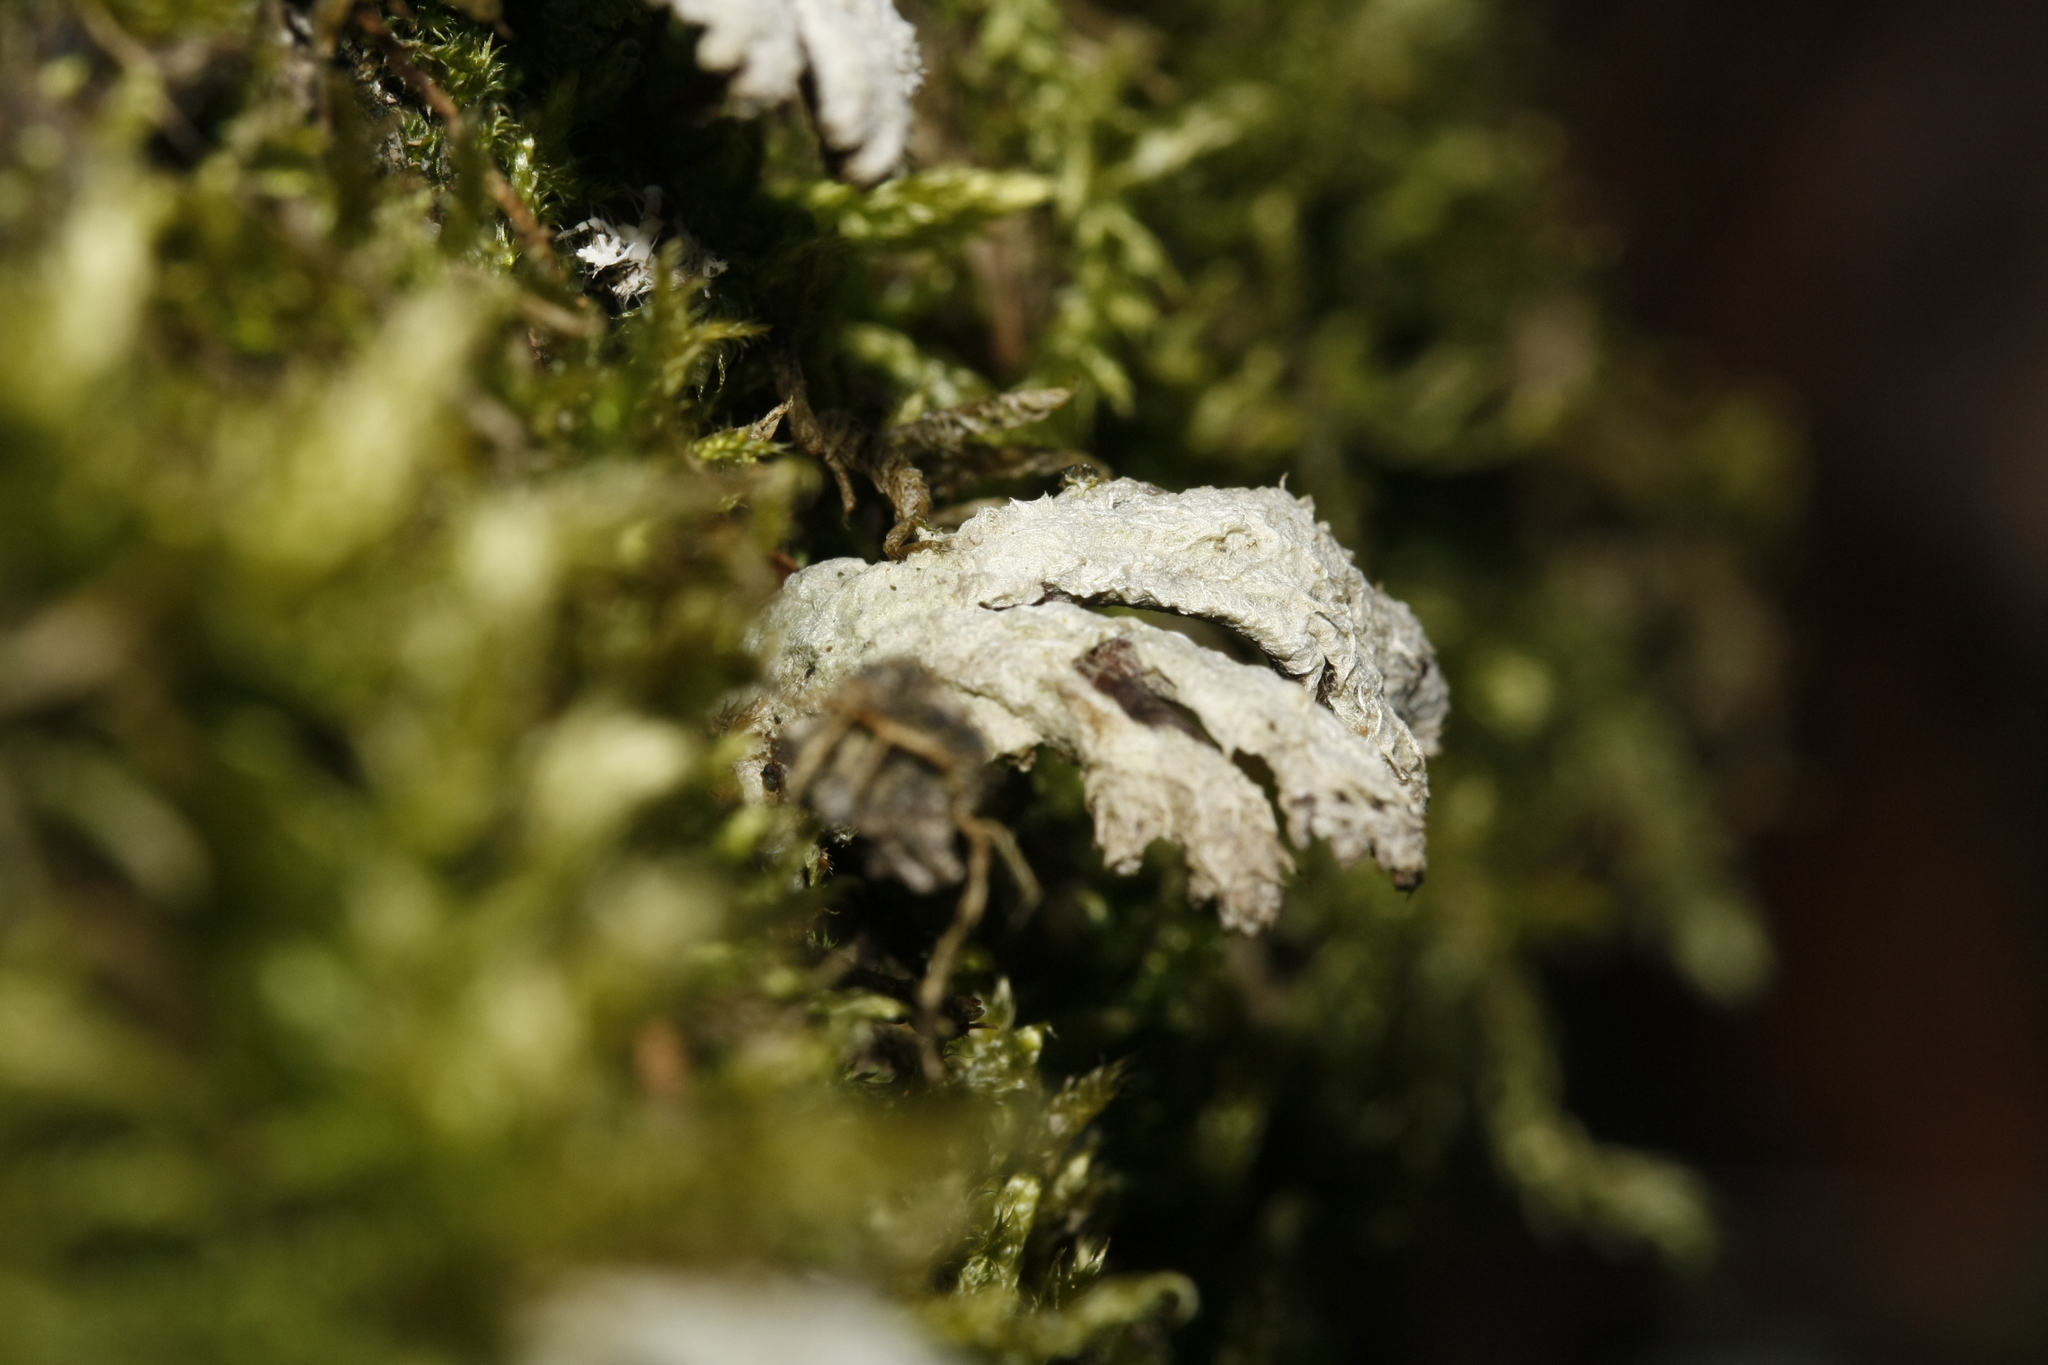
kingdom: Fungi
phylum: Basidiomycota
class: Agaricomycetes
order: Agaricales
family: Schizophyllaceae
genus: Schizophyllum
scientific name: Schizophyllum commune
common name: Common porecrust
